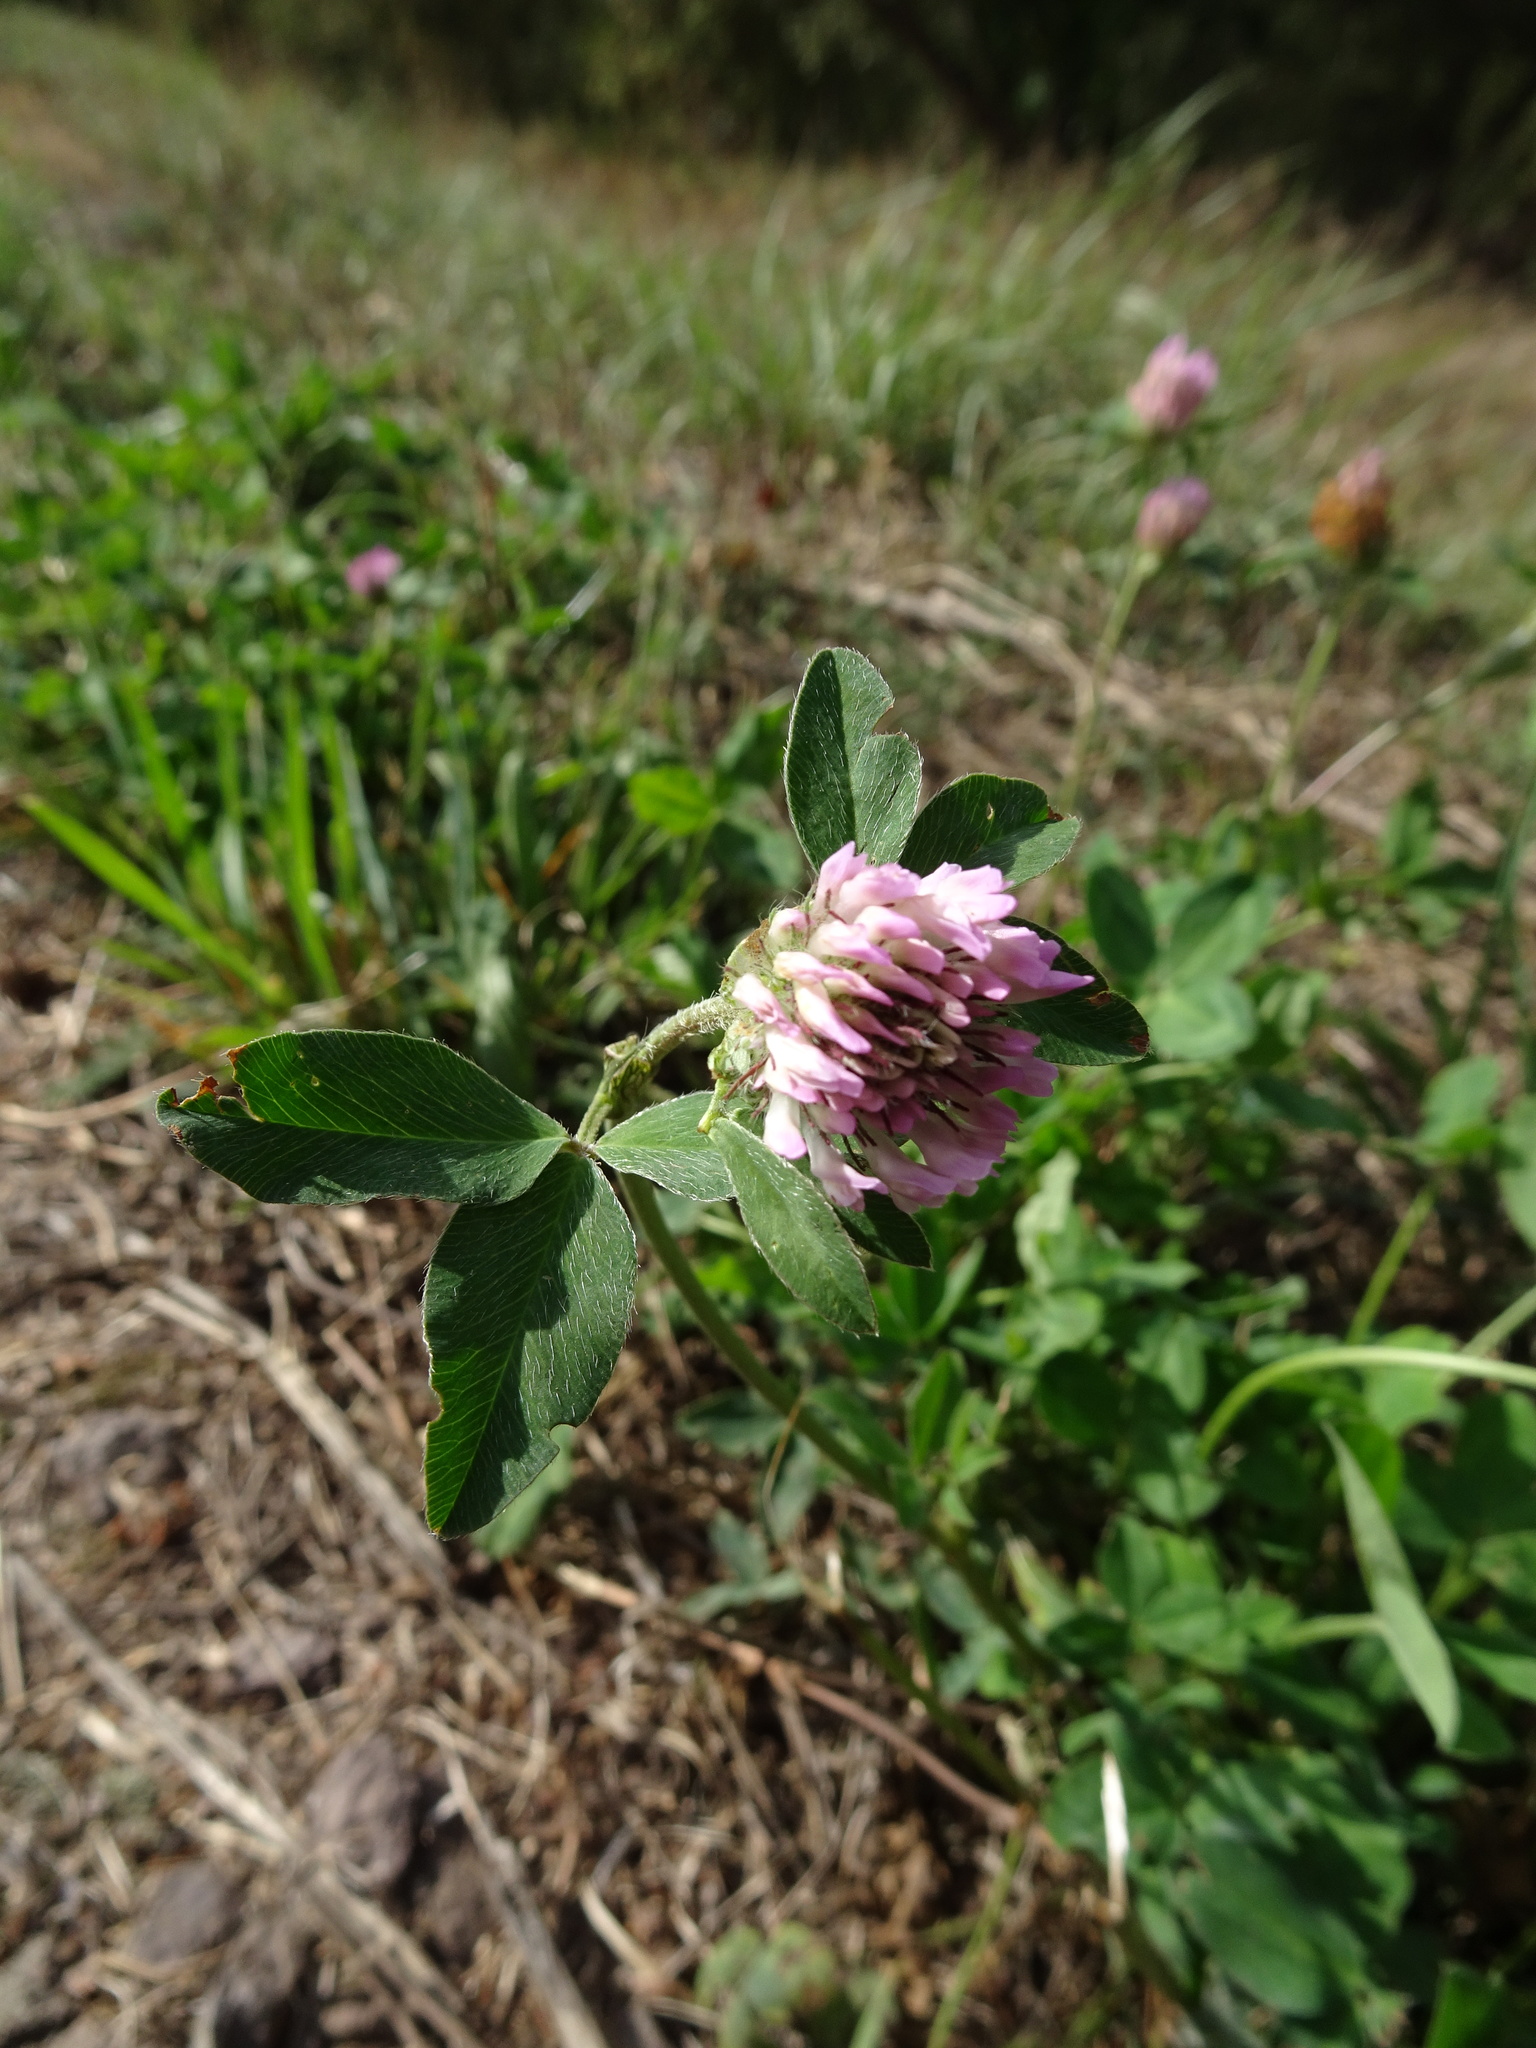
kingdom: Plantae
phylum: Tracheophyta
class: Magnoliopsida
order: Fabales
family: Fabaceae
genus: Trifolium
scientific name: Trifolium medium
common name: Zigzag clover
